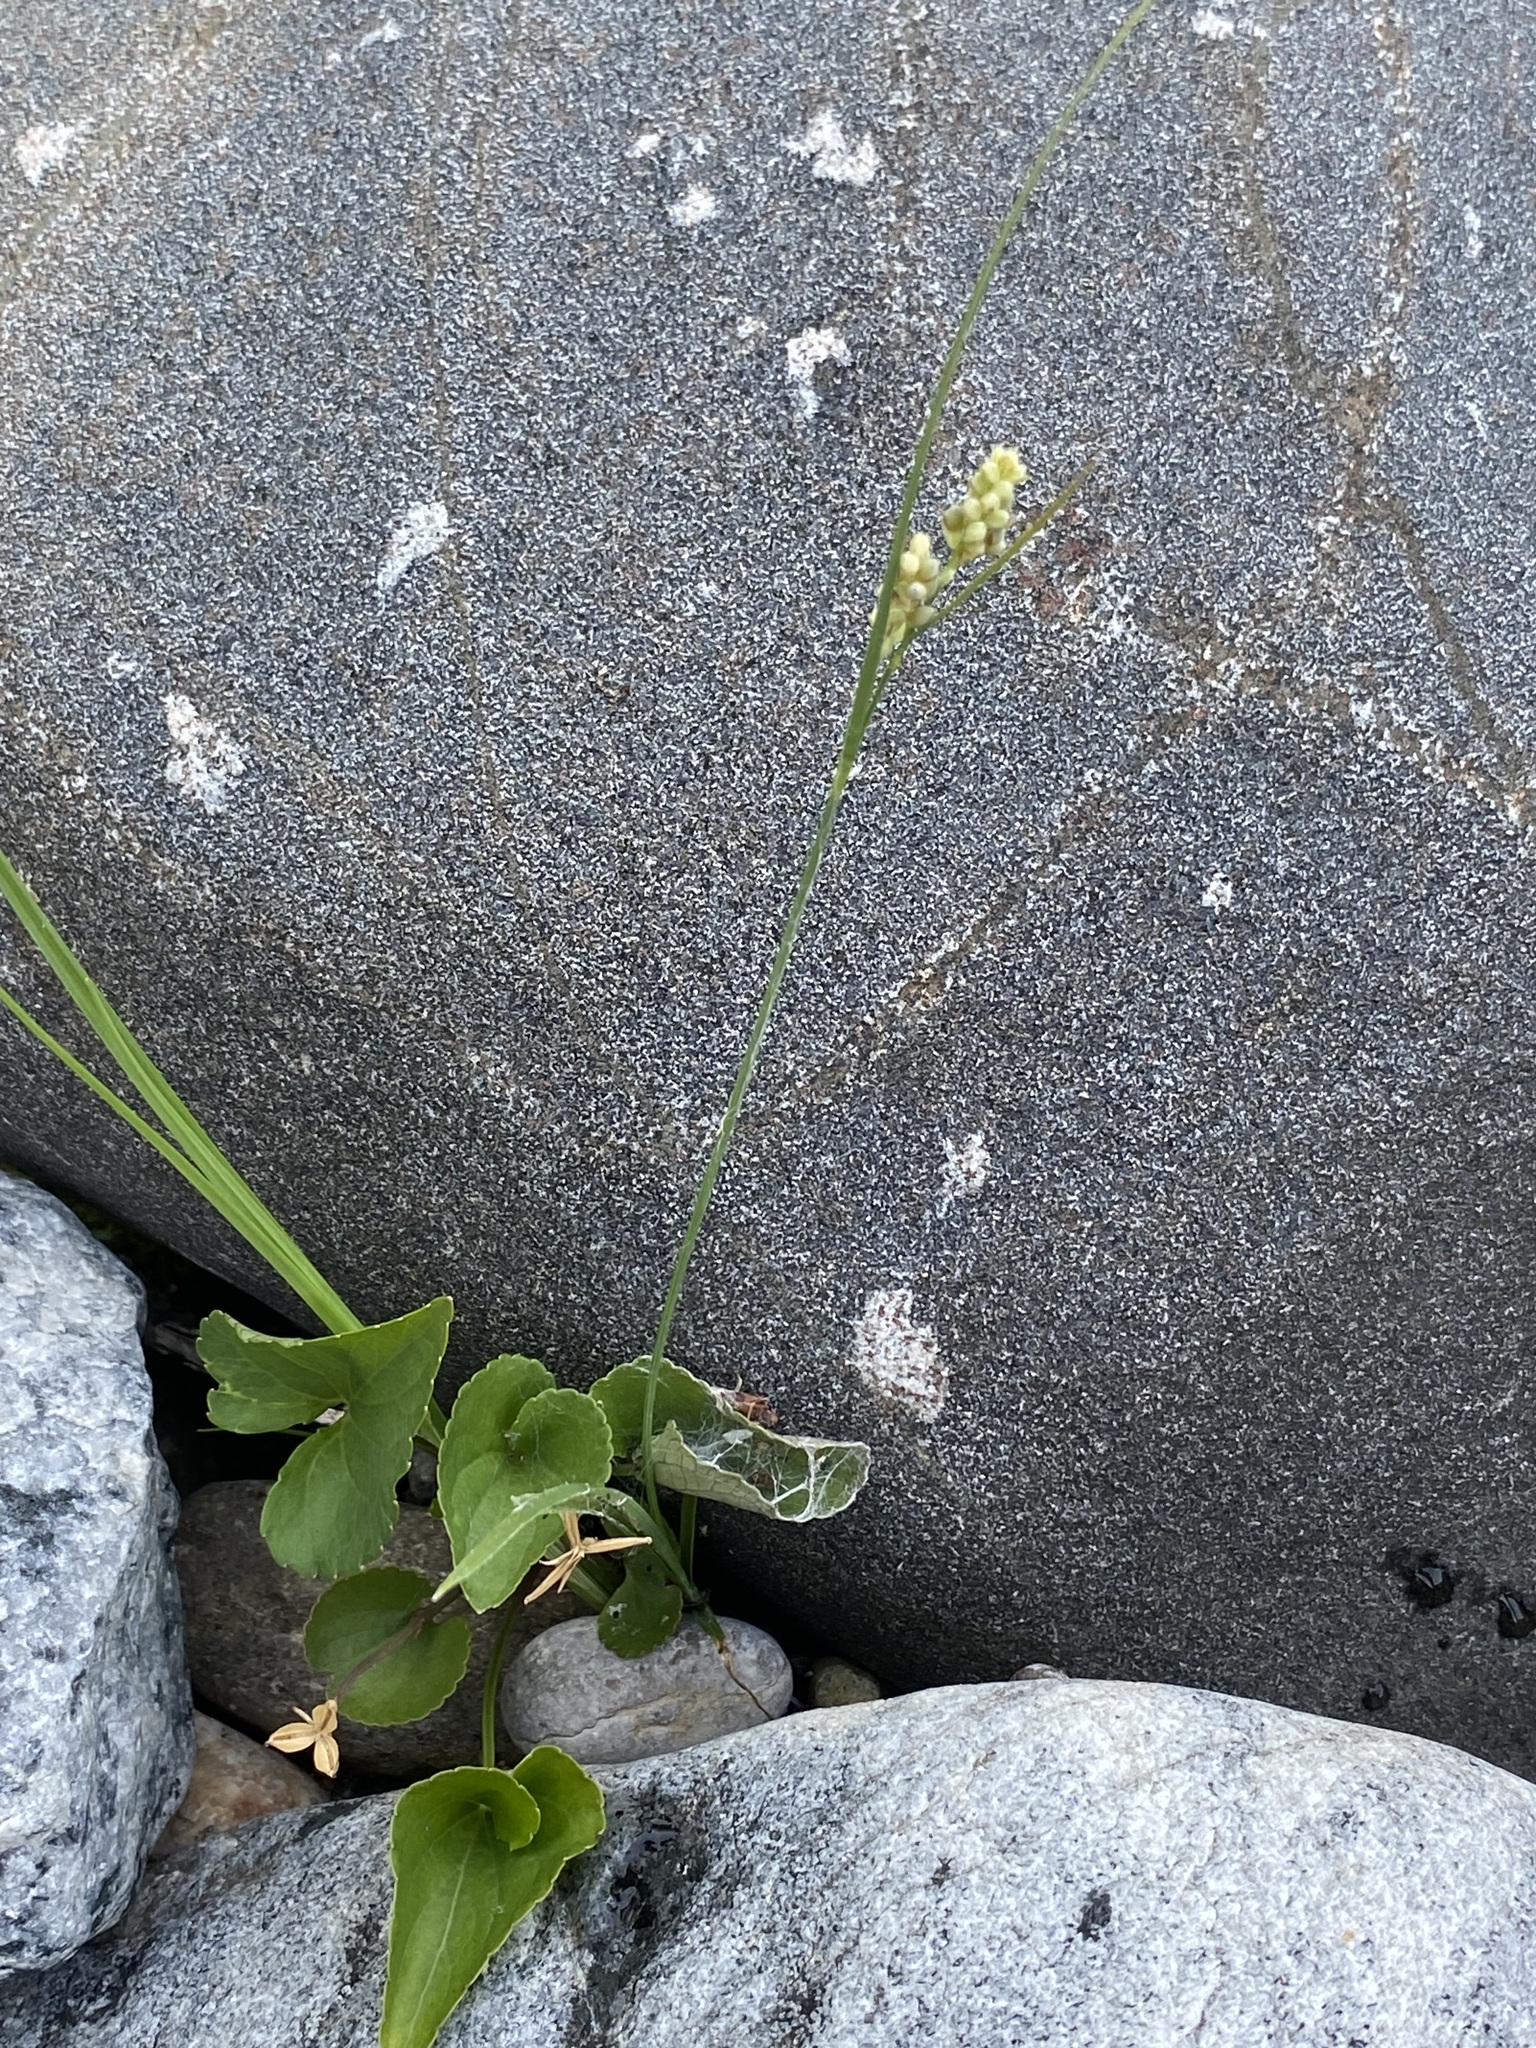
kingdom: Plantae
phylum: Tracheophyta
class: Liliopsida
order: Poales
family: Cyperaceae
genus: Carex
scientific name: Carex aurea
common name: Golden sedge
